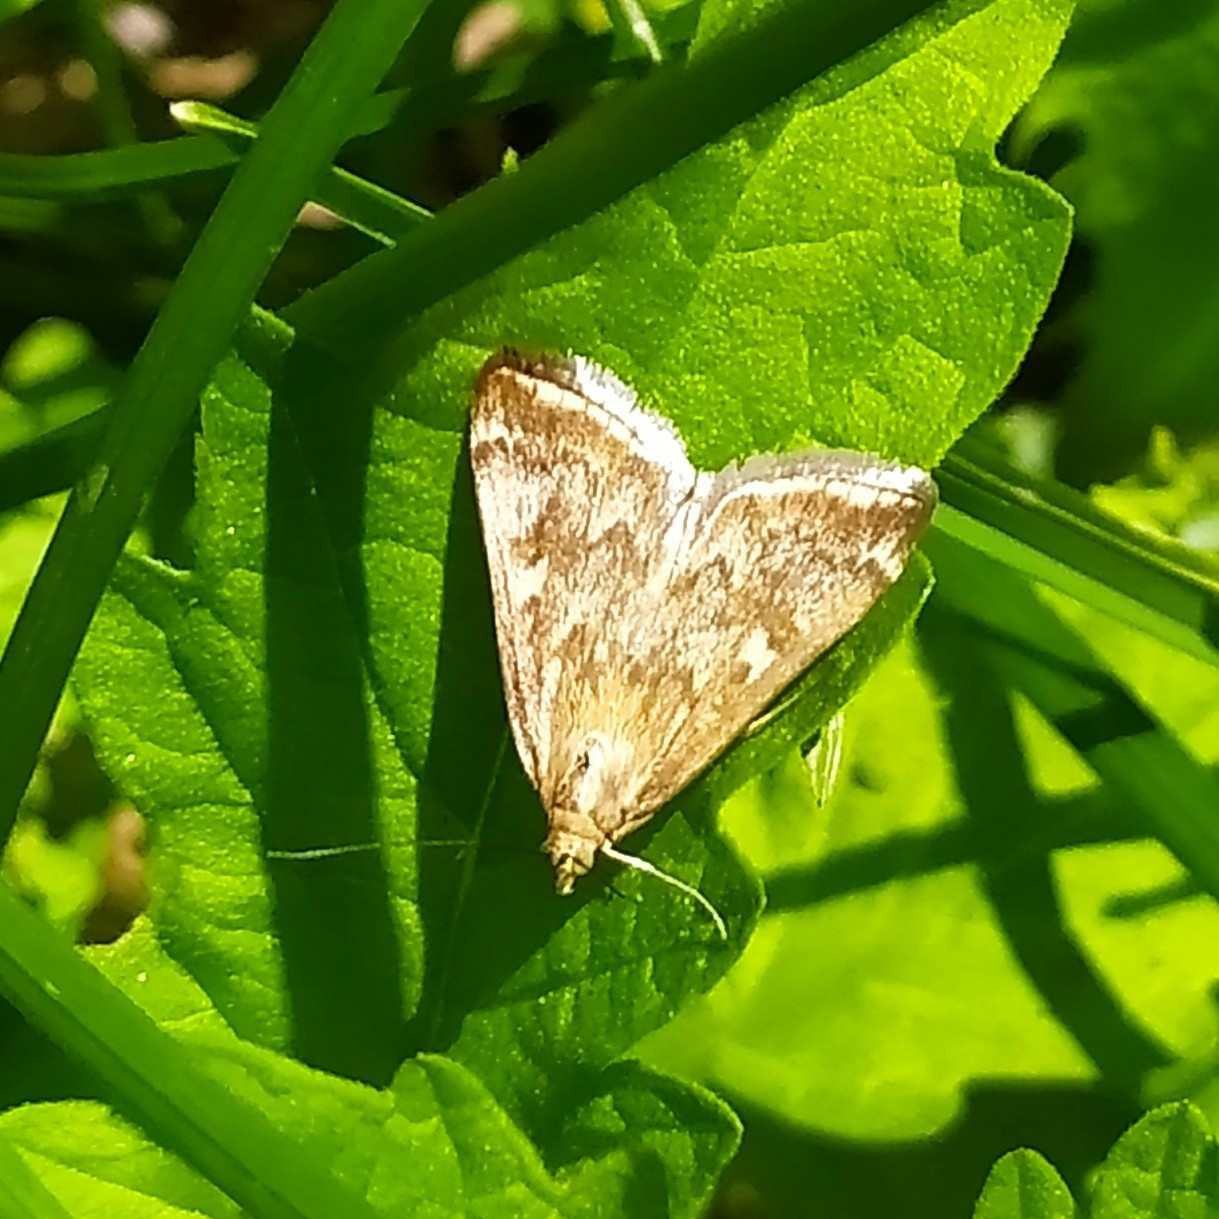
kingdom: Animalia
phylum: Arthropoda
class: Insecta
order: Lepidoptera
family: Crambidae
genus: Loxostege
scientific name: Loxostege sticticalis
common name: Crambid moth
